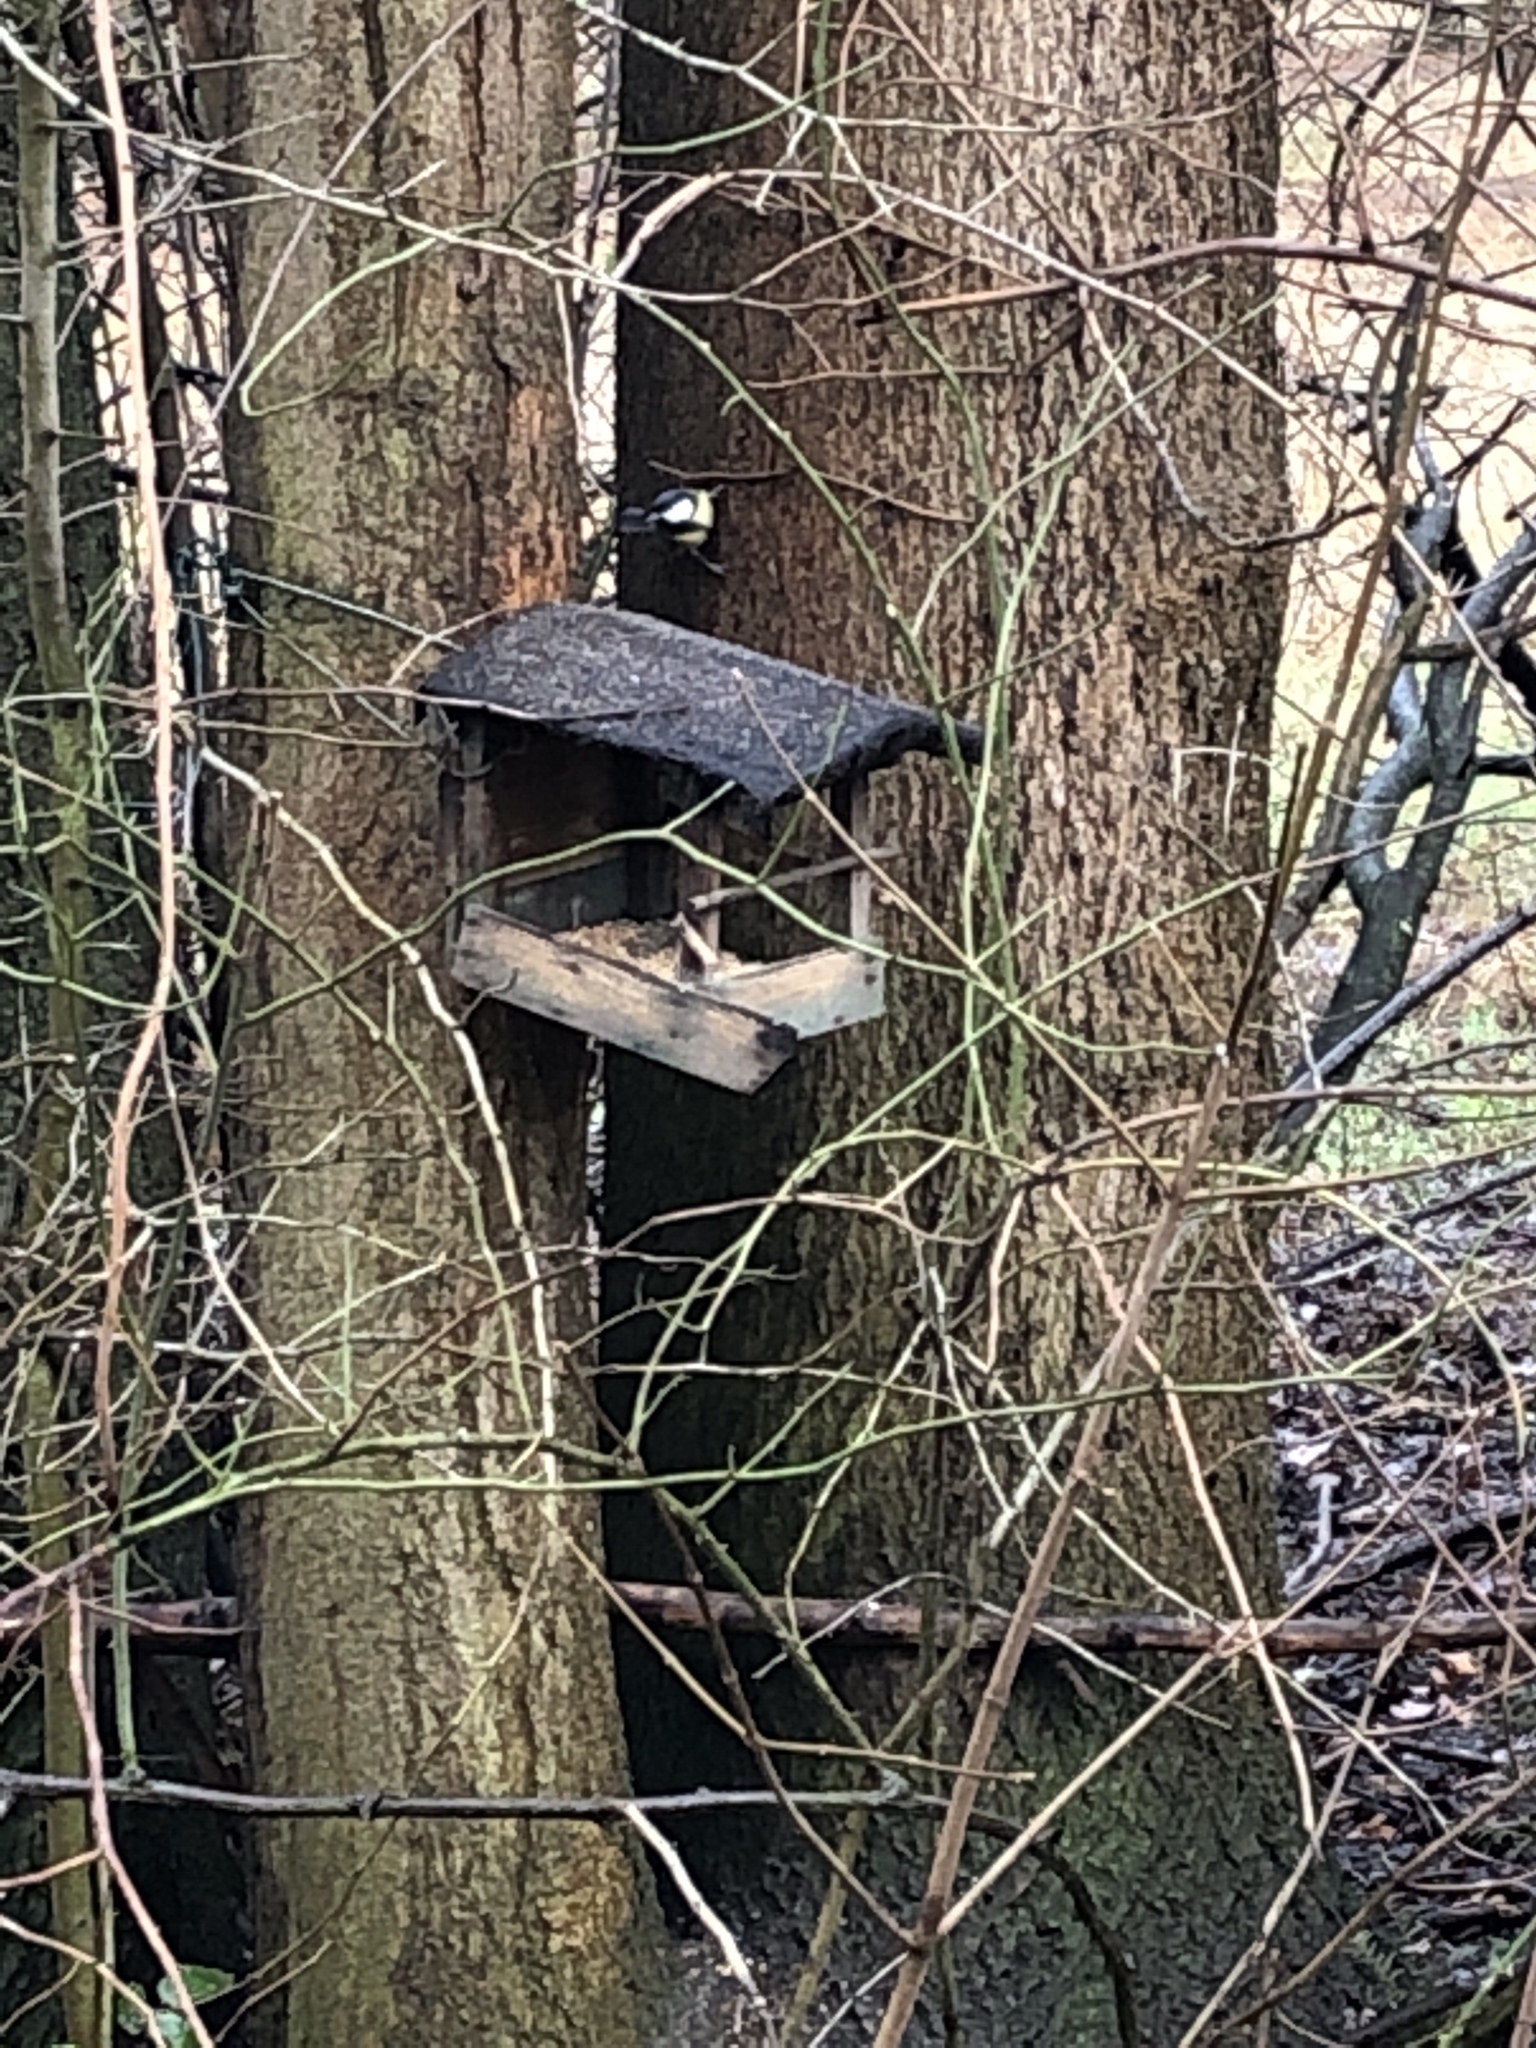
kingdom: Animalia
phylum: Chordata
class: Aves
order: Passeriformes
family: Paridae
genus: Parus
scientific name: Parus major
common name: Great tit
